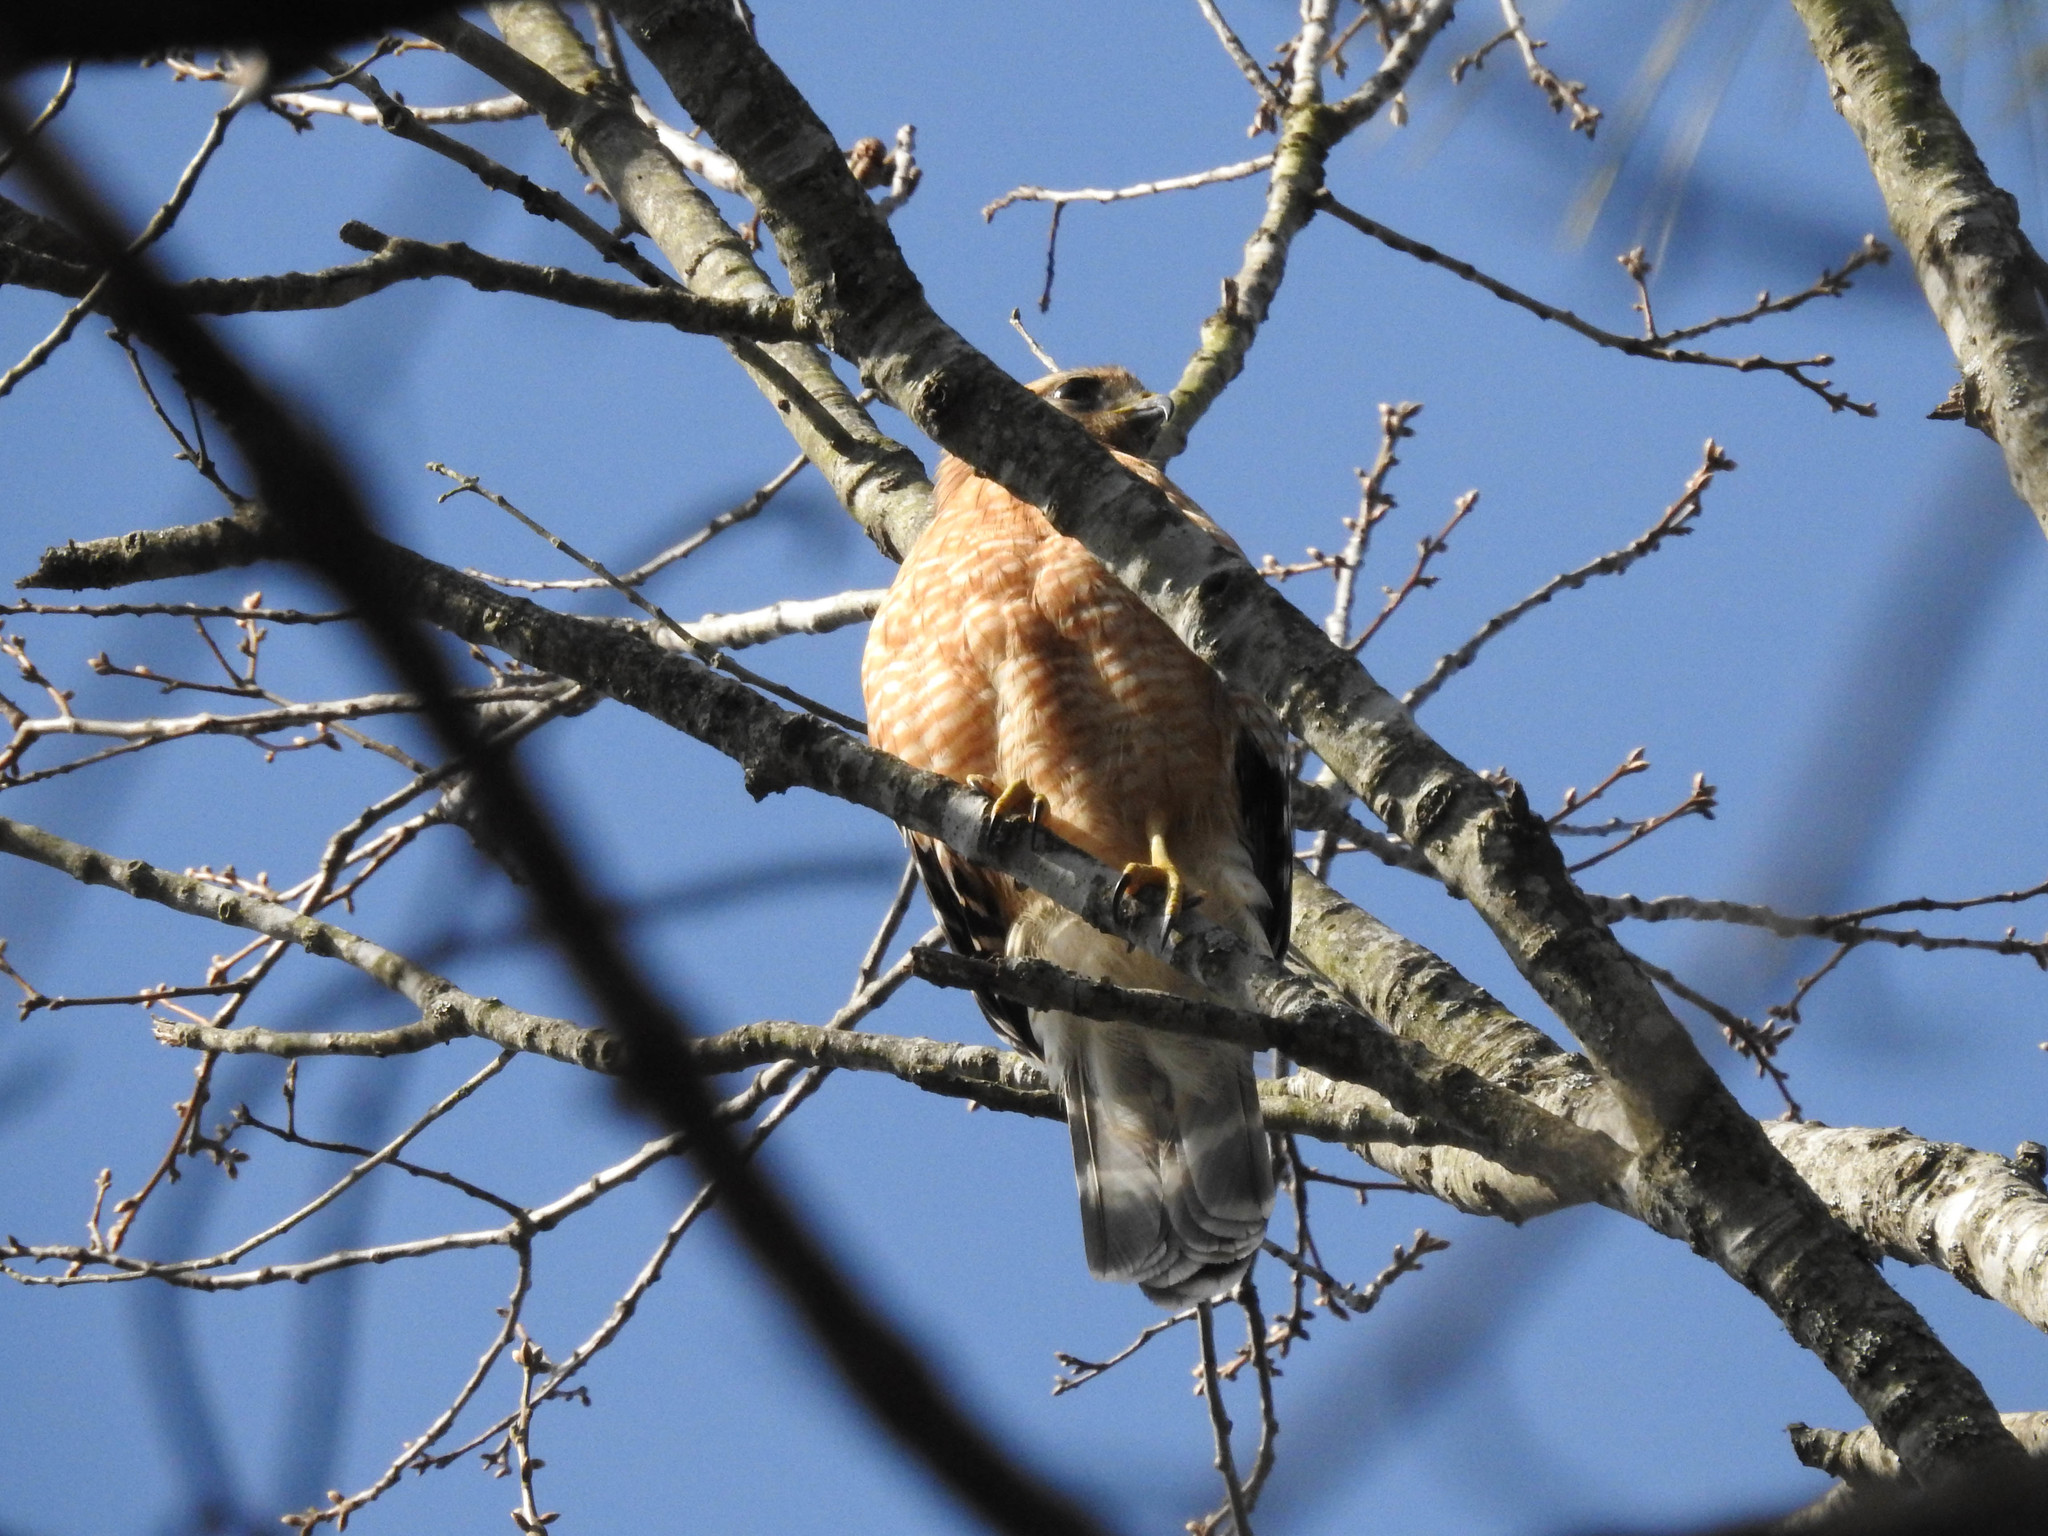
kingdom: Animalia
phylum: Chordata
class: Aves
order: Accipitriformes
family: Accipitridae
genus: Buteo
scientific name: Buteo lineatus
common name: Red-shouldered hawk
